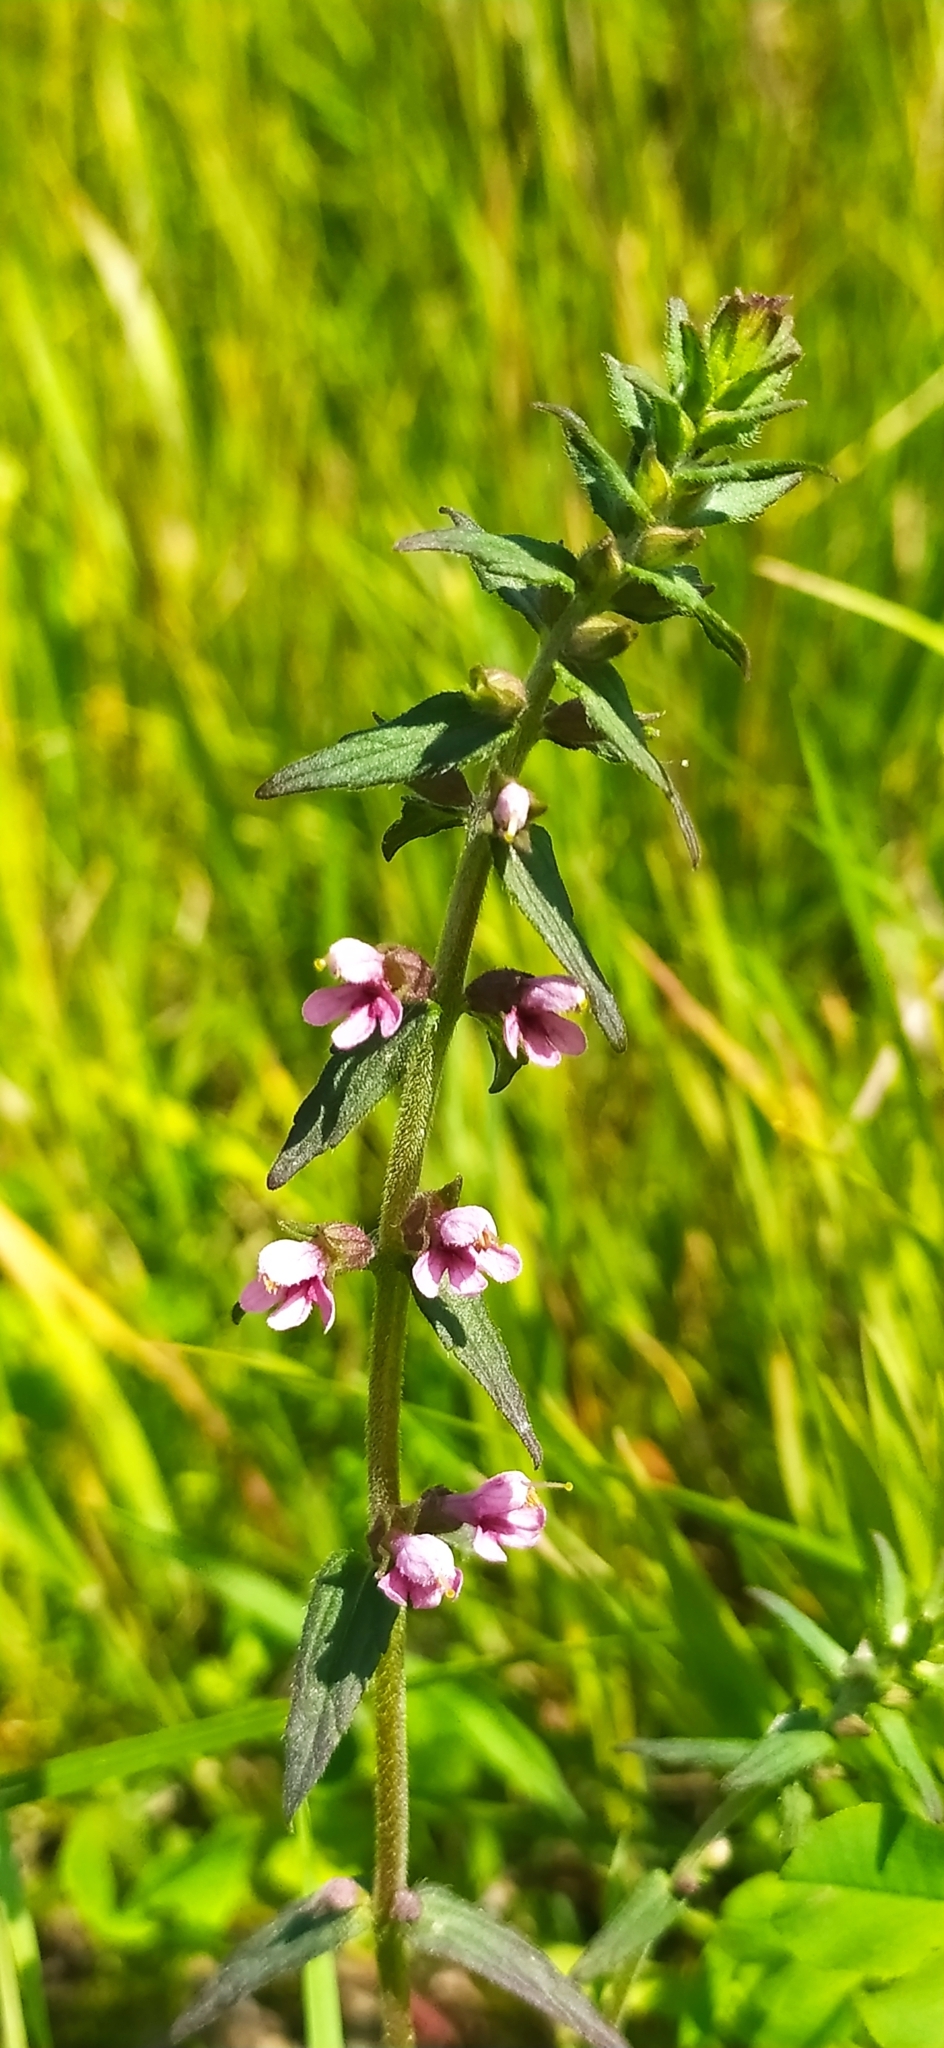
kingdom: Plantae
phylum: Tracheophyta
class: Magnoliopsida
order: Lamiales
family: Orobanchaceae
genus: Odontites
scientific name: Odontites vulgaris
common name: Broomrape
